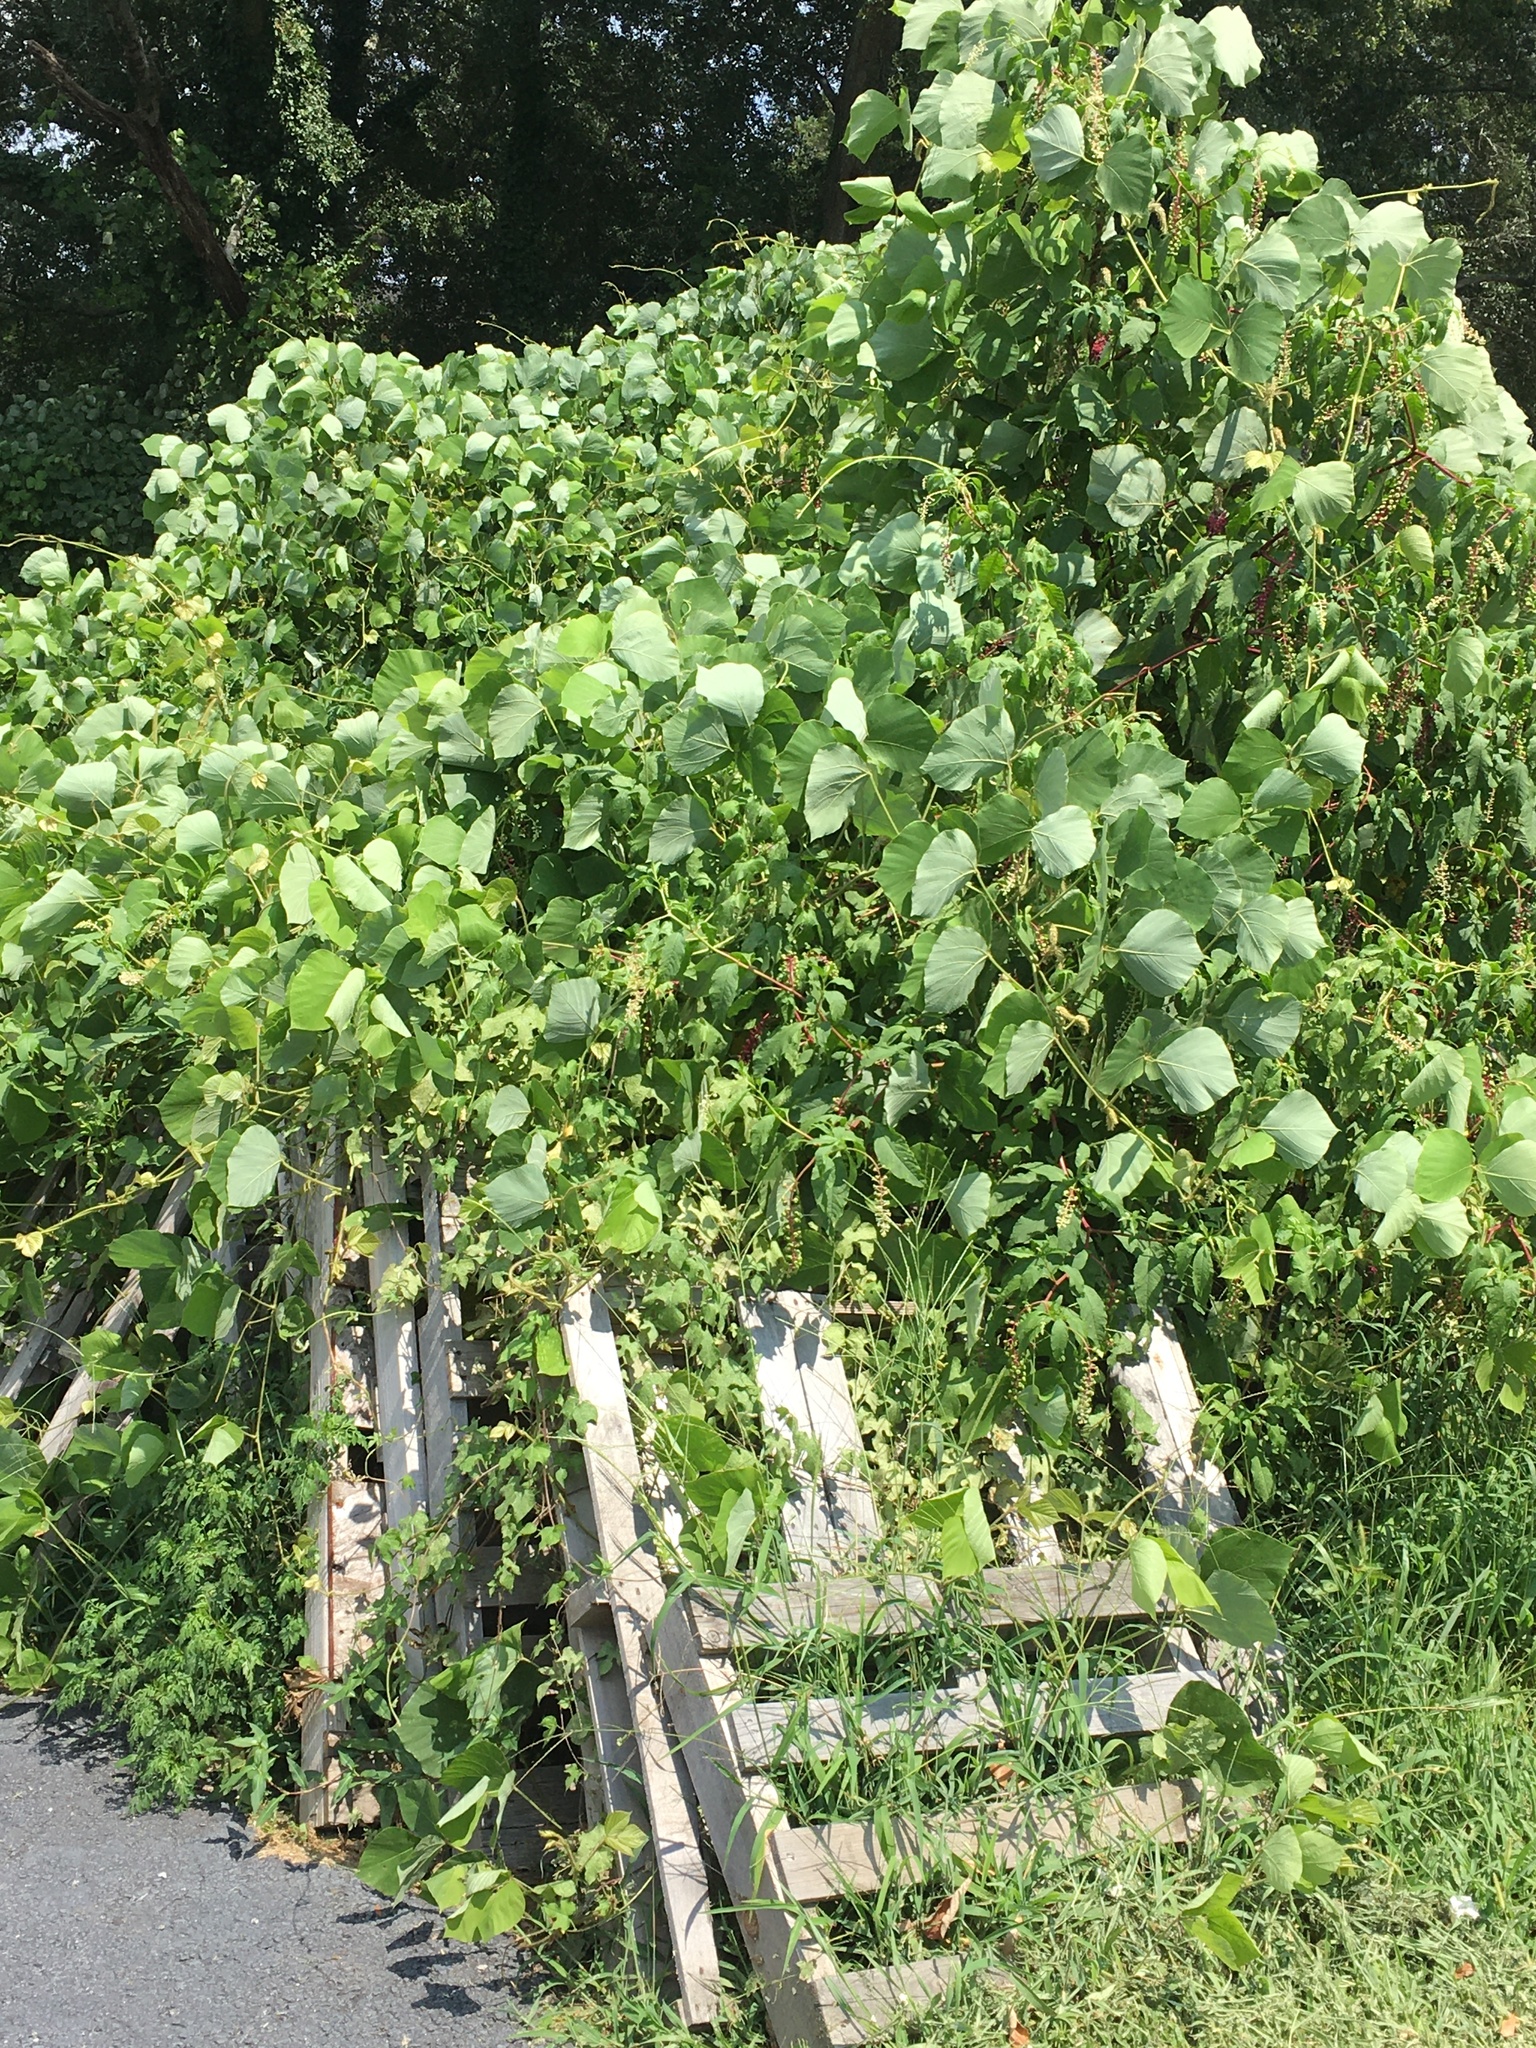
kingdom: Plantae
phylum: Tracheophyta
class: Magnoliopsida
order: Fabales
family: Fabaceae
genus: Pueraria
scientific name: Pueraria montana
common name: Kudzu
